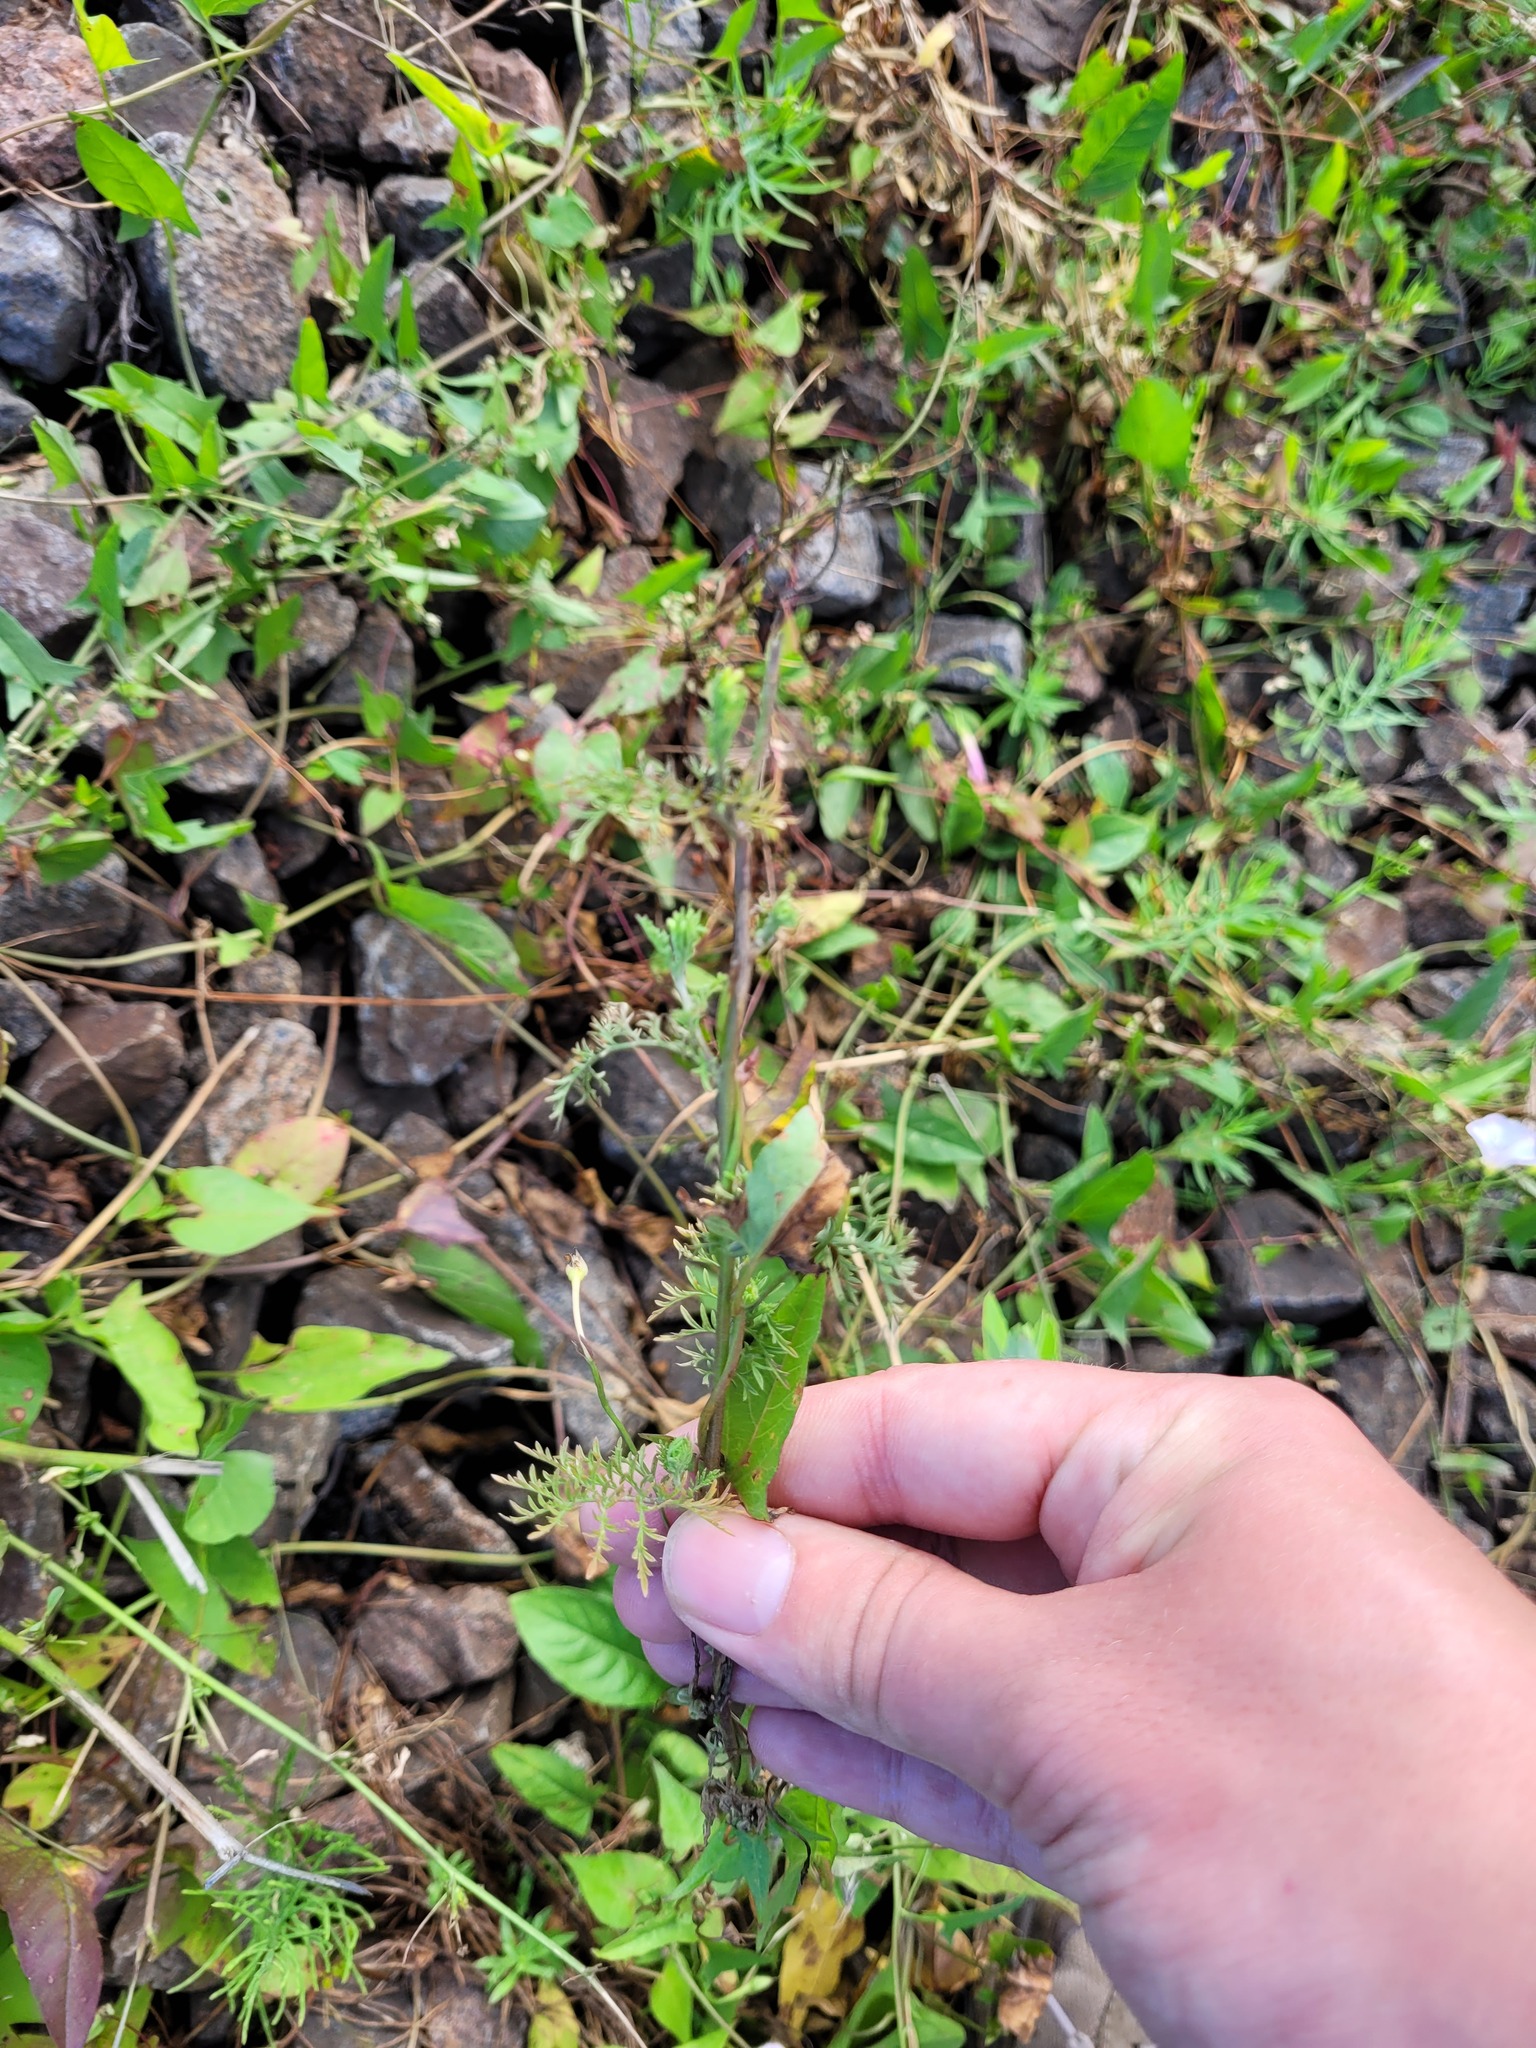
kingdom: Plantae
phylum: Tracheophyta
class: Magnoliopsida
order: Brassicales
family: Brassicaceae
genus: Descurainia
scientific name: Descurainia sophia
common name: Flixweed
